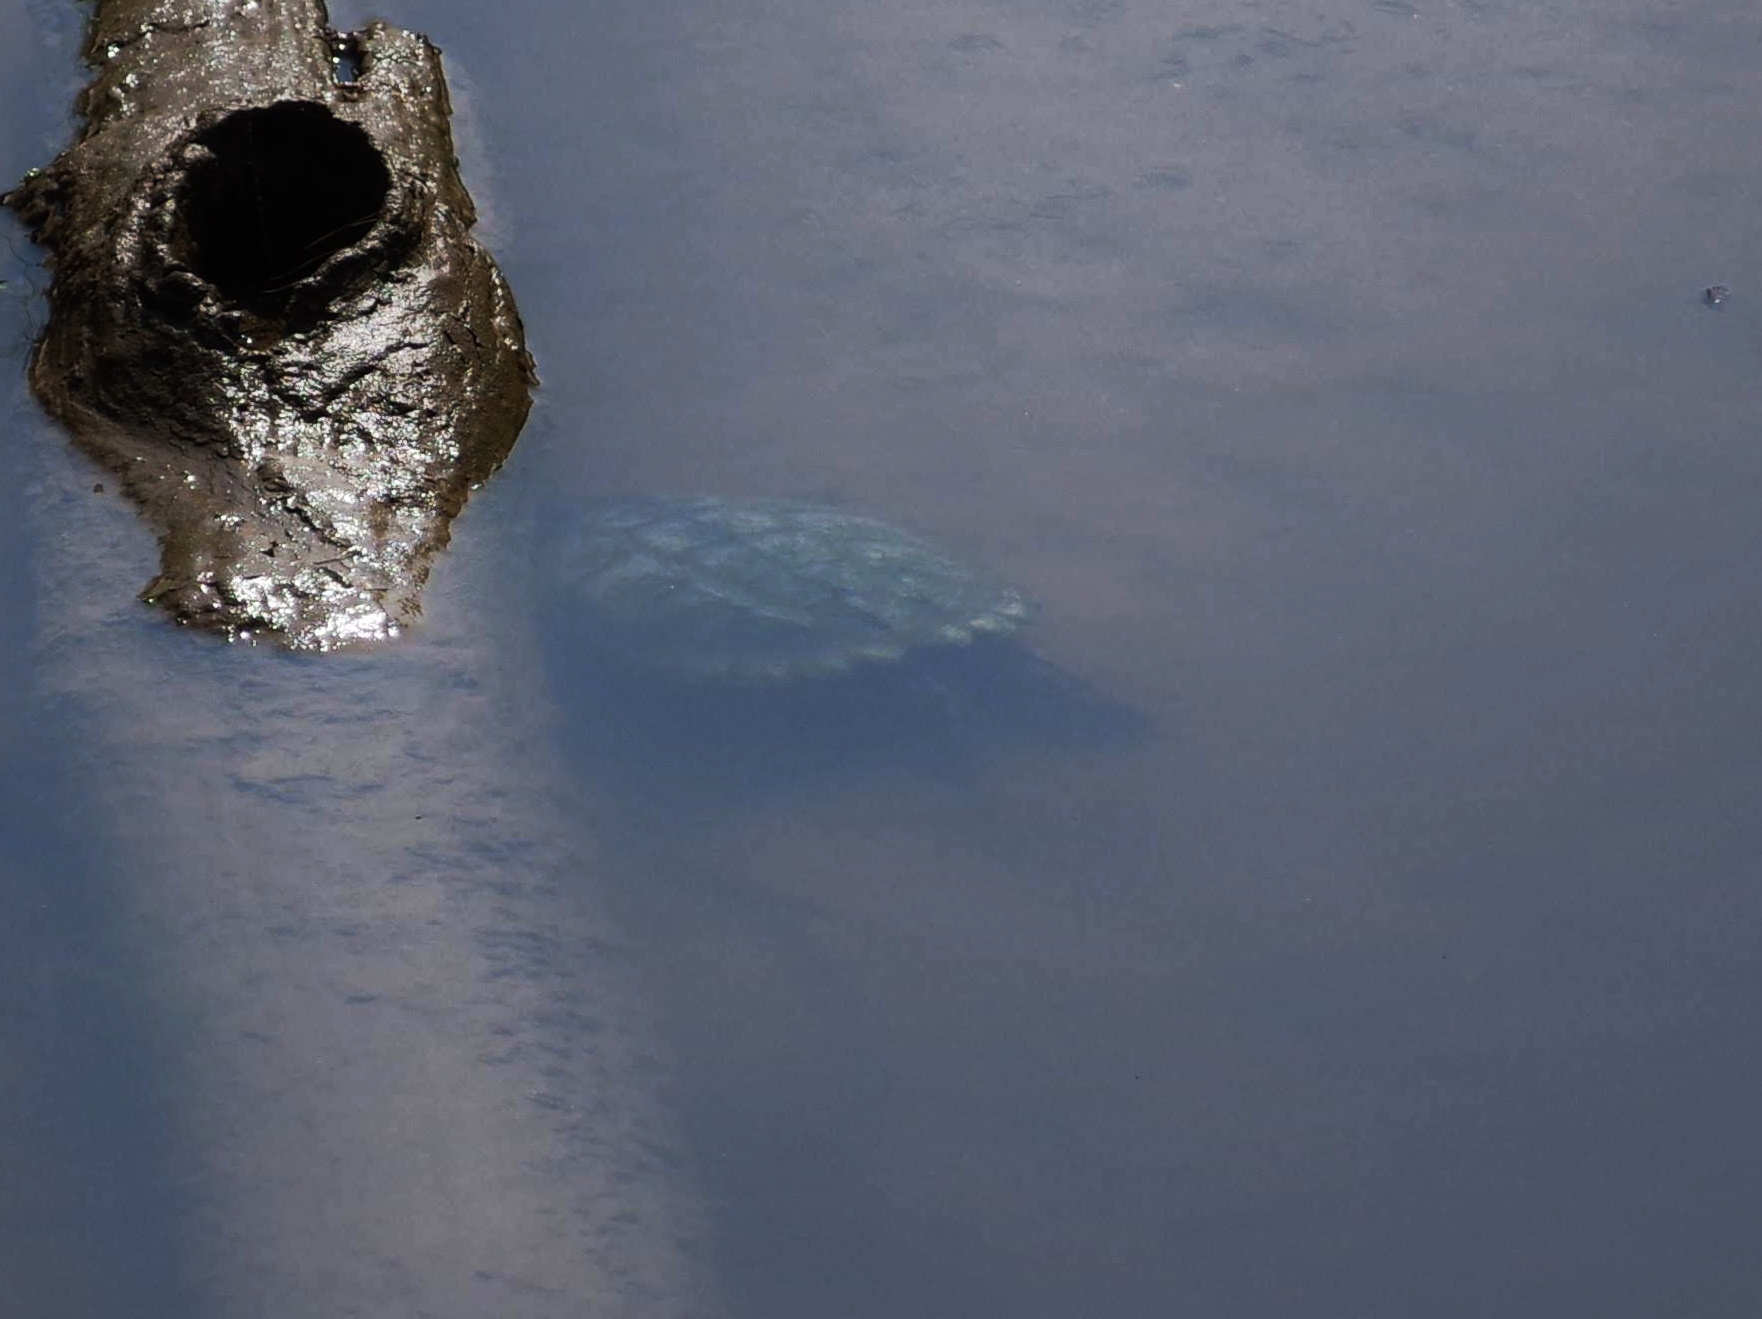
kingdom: Animalia
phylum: Chordata
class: Testudines
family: Chelydridae
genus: Chelydra
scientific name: Chelydra serpentina
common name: Common snapping turtle
